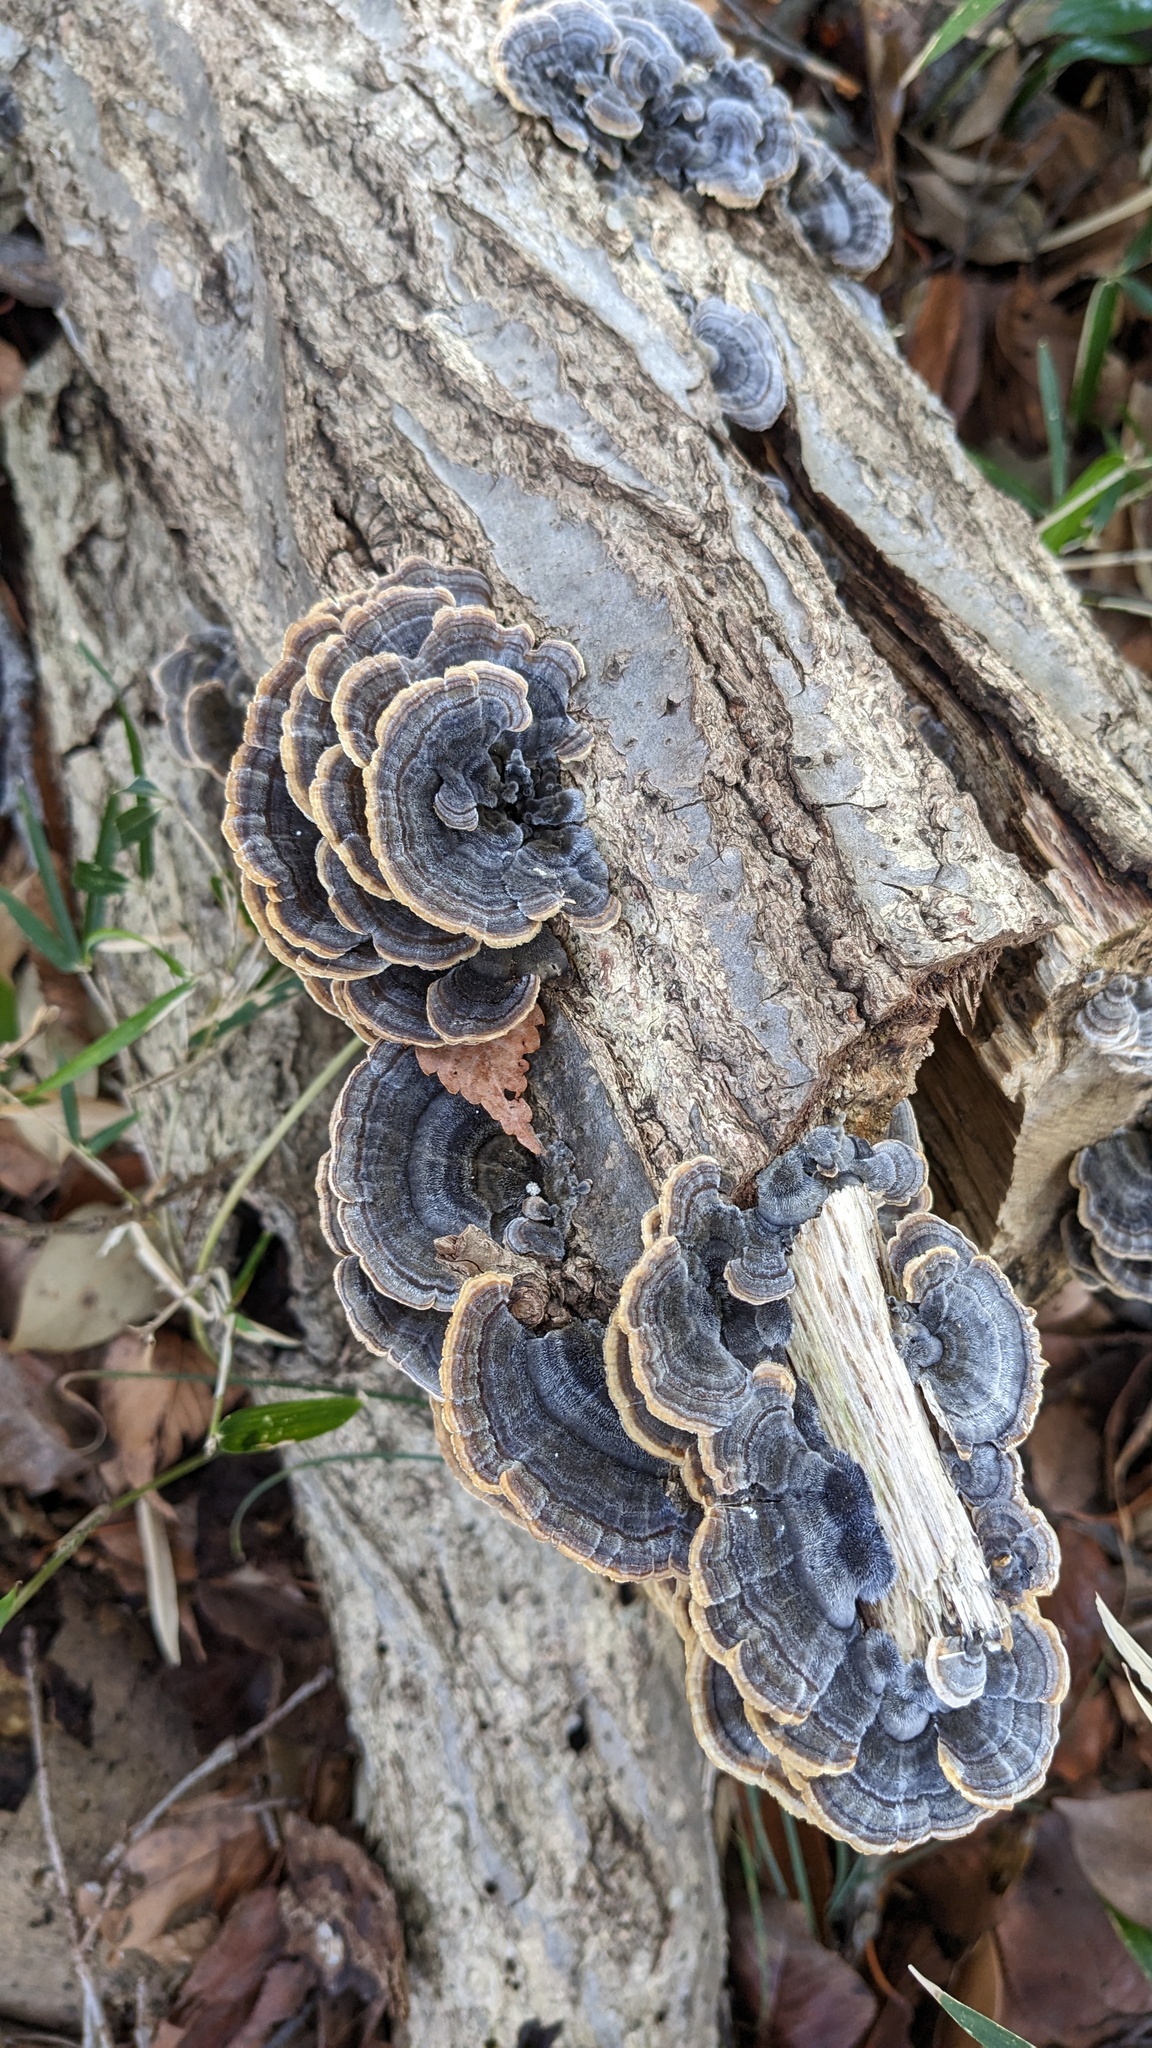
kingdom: Fungi
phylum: Basidiomycota
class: Agaricomycetes
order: Polyporales
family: Polyporaceae
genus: Trametes
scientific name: Trametes versicolor
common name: Turkeytail
